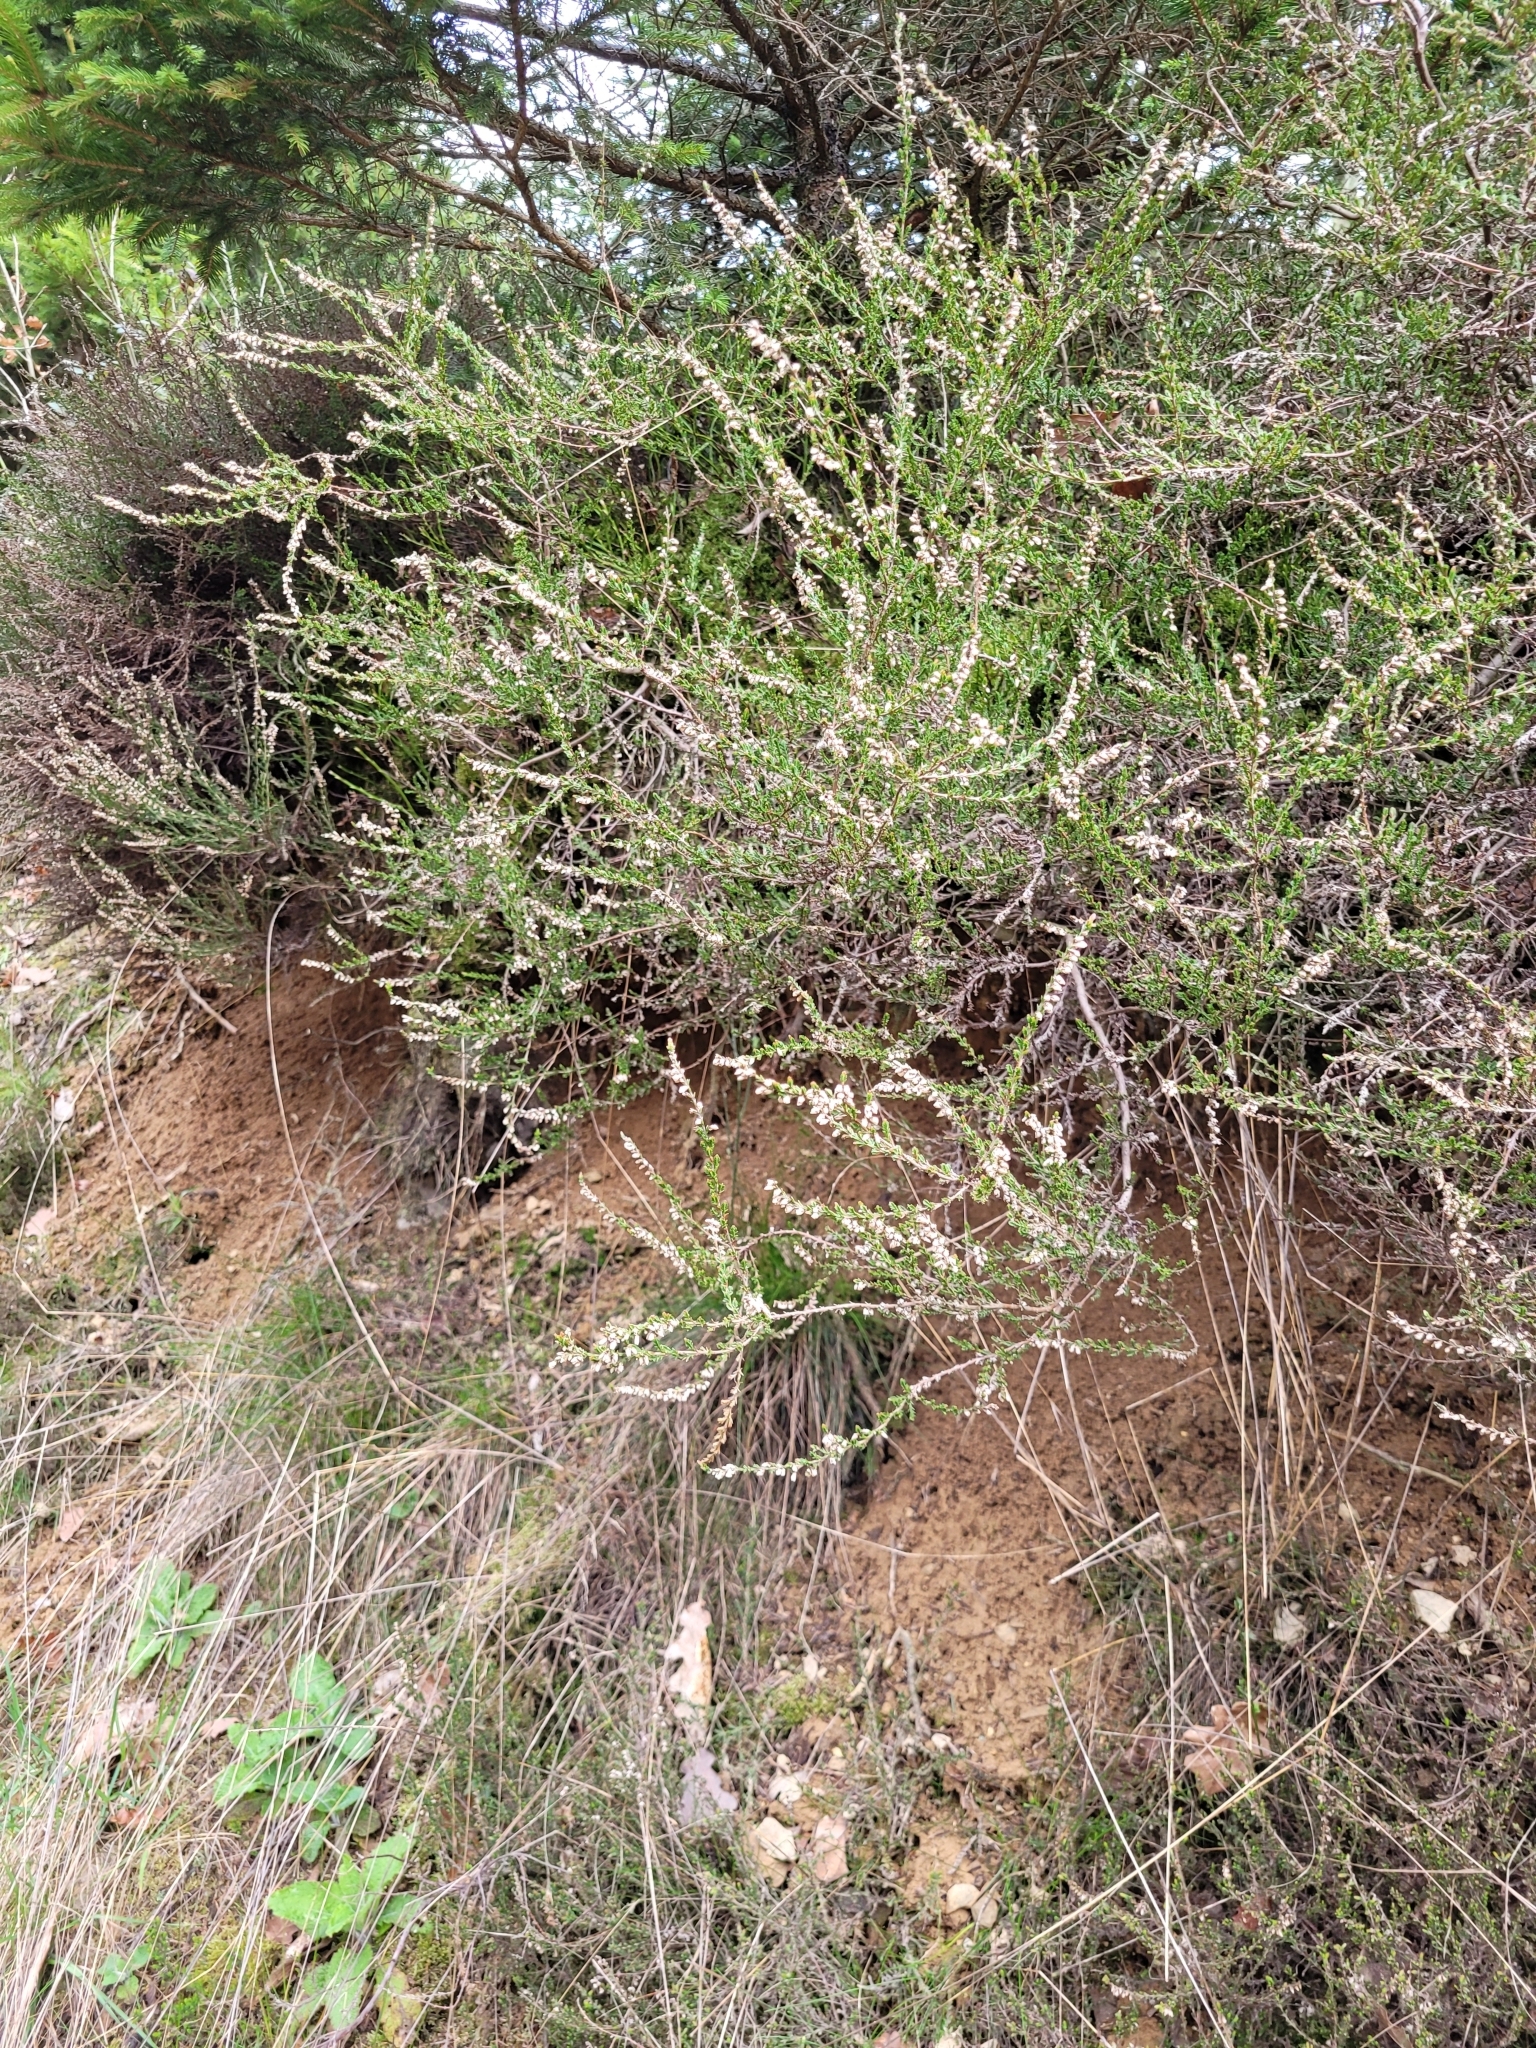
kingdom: Plantae
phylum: Tracheophyta
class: Magnoliopsida
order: Ericales
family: Ericaceae
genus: Calluna
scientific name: Calluna vulgaris
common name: Heather
